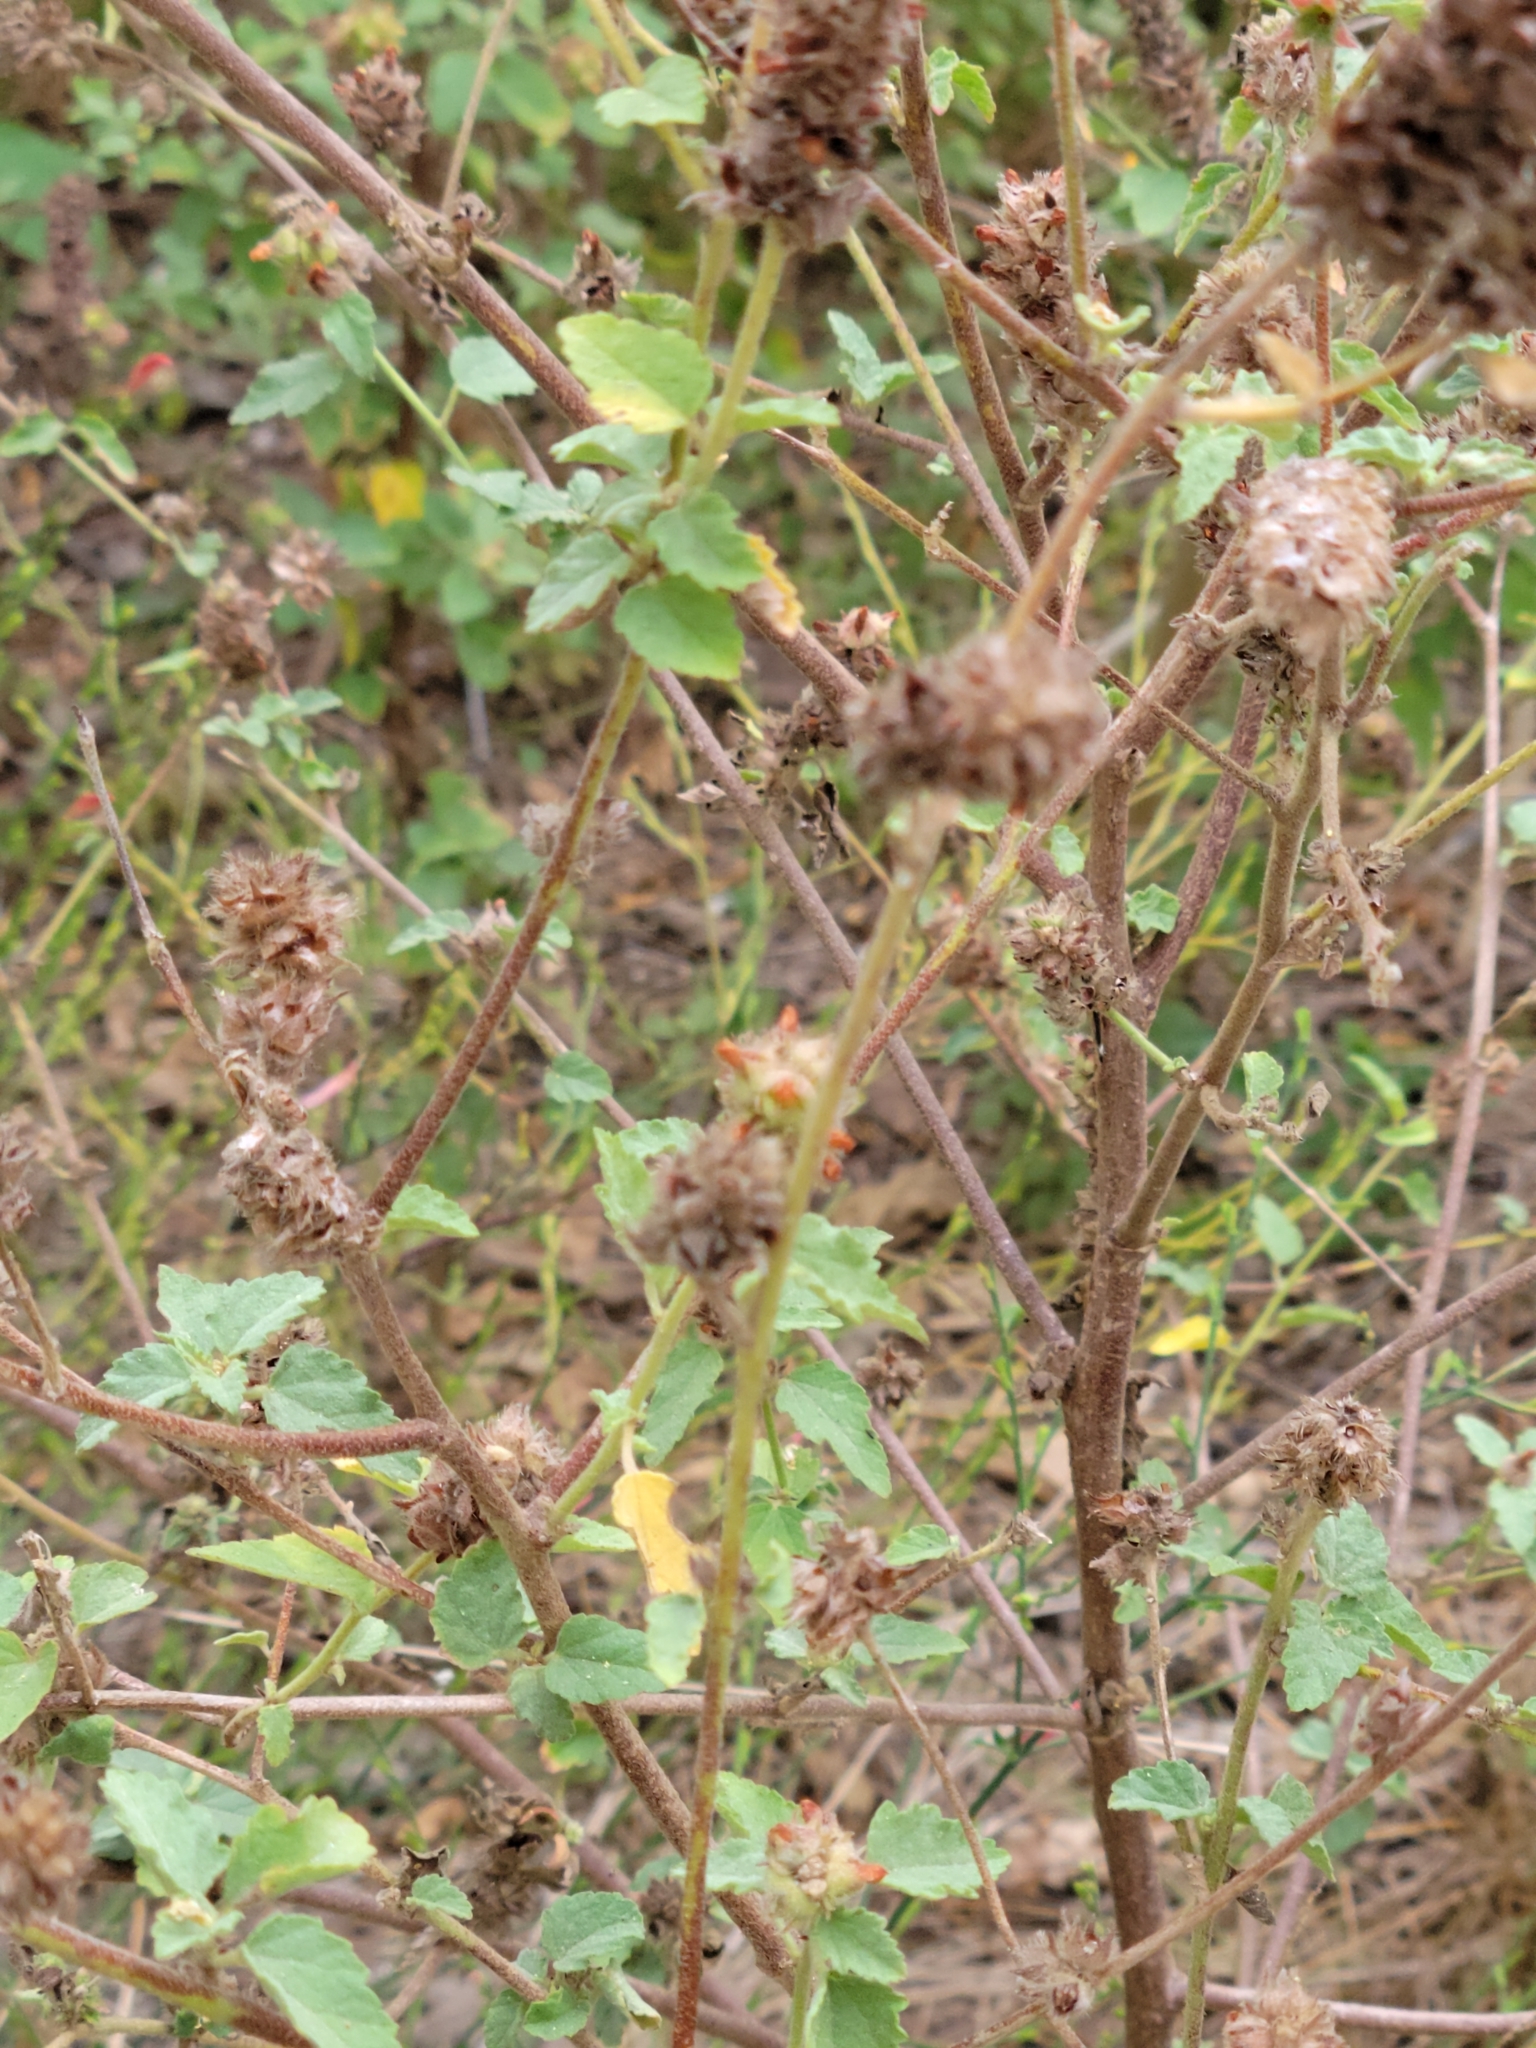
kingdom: Plantae
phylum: Tracheophyta
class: Magnoliopsida
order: Malvales
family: Malvaceae
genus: Malvastrum
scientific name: Malvastrum americanum
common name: Spiked malvastrum
